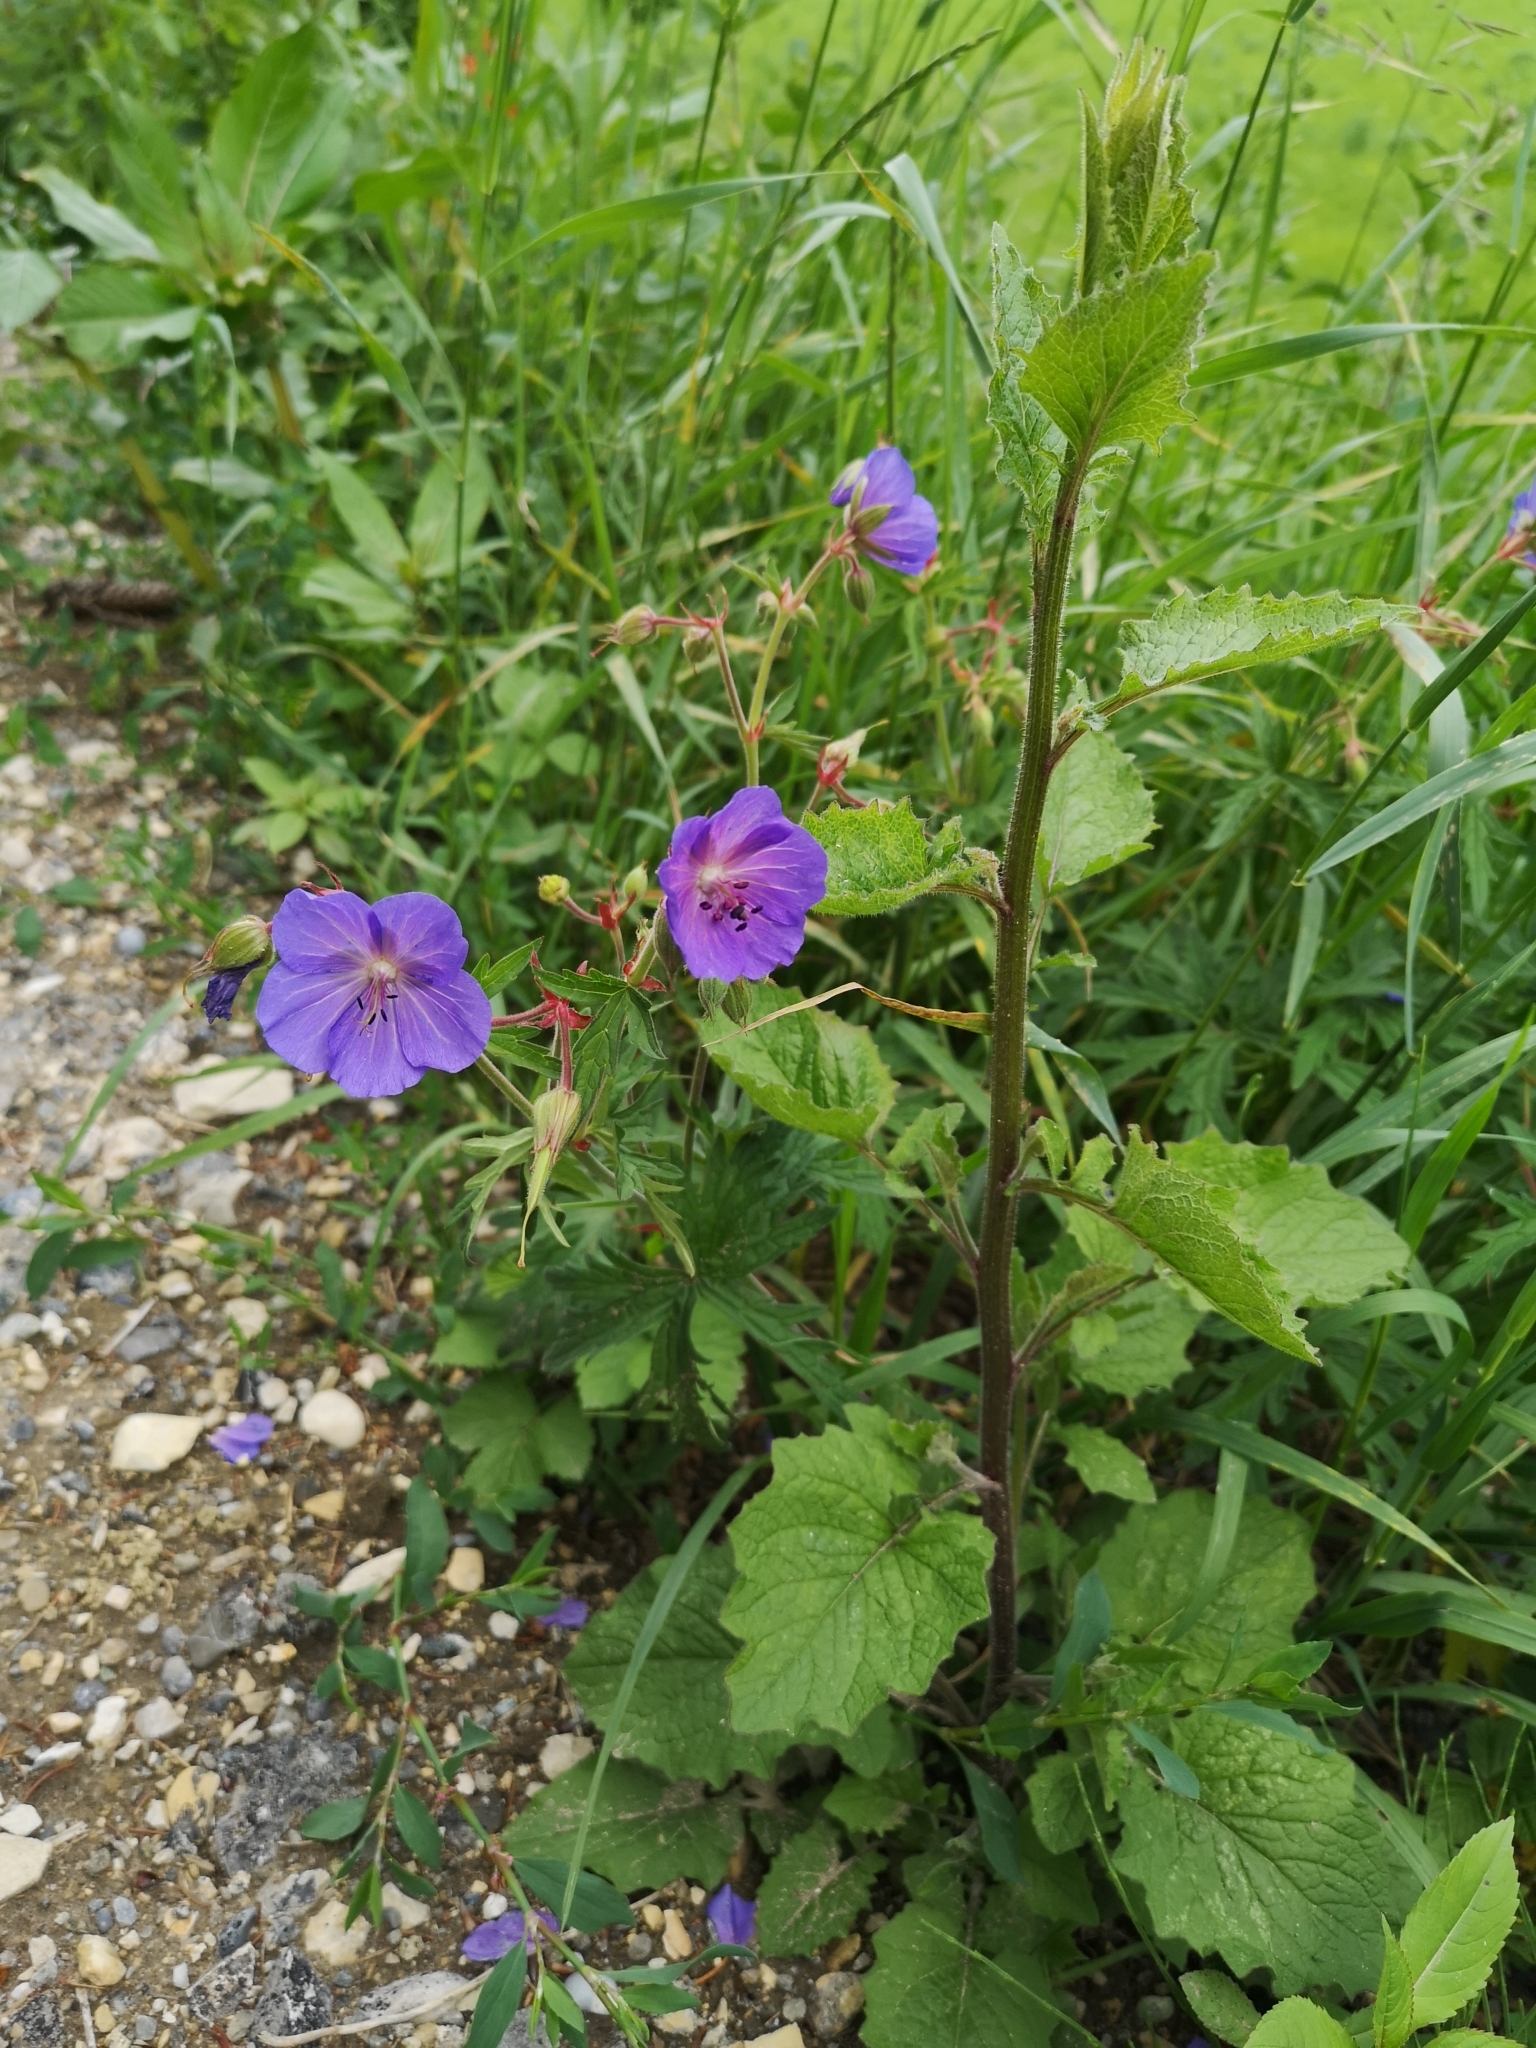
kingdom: Plantae
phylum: Tracheophyta
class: Magnoliopsida
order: Geraniales
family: Geraniaceae
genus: Geranium
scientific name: Geranium pratense
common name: Meadow crane's-bill
